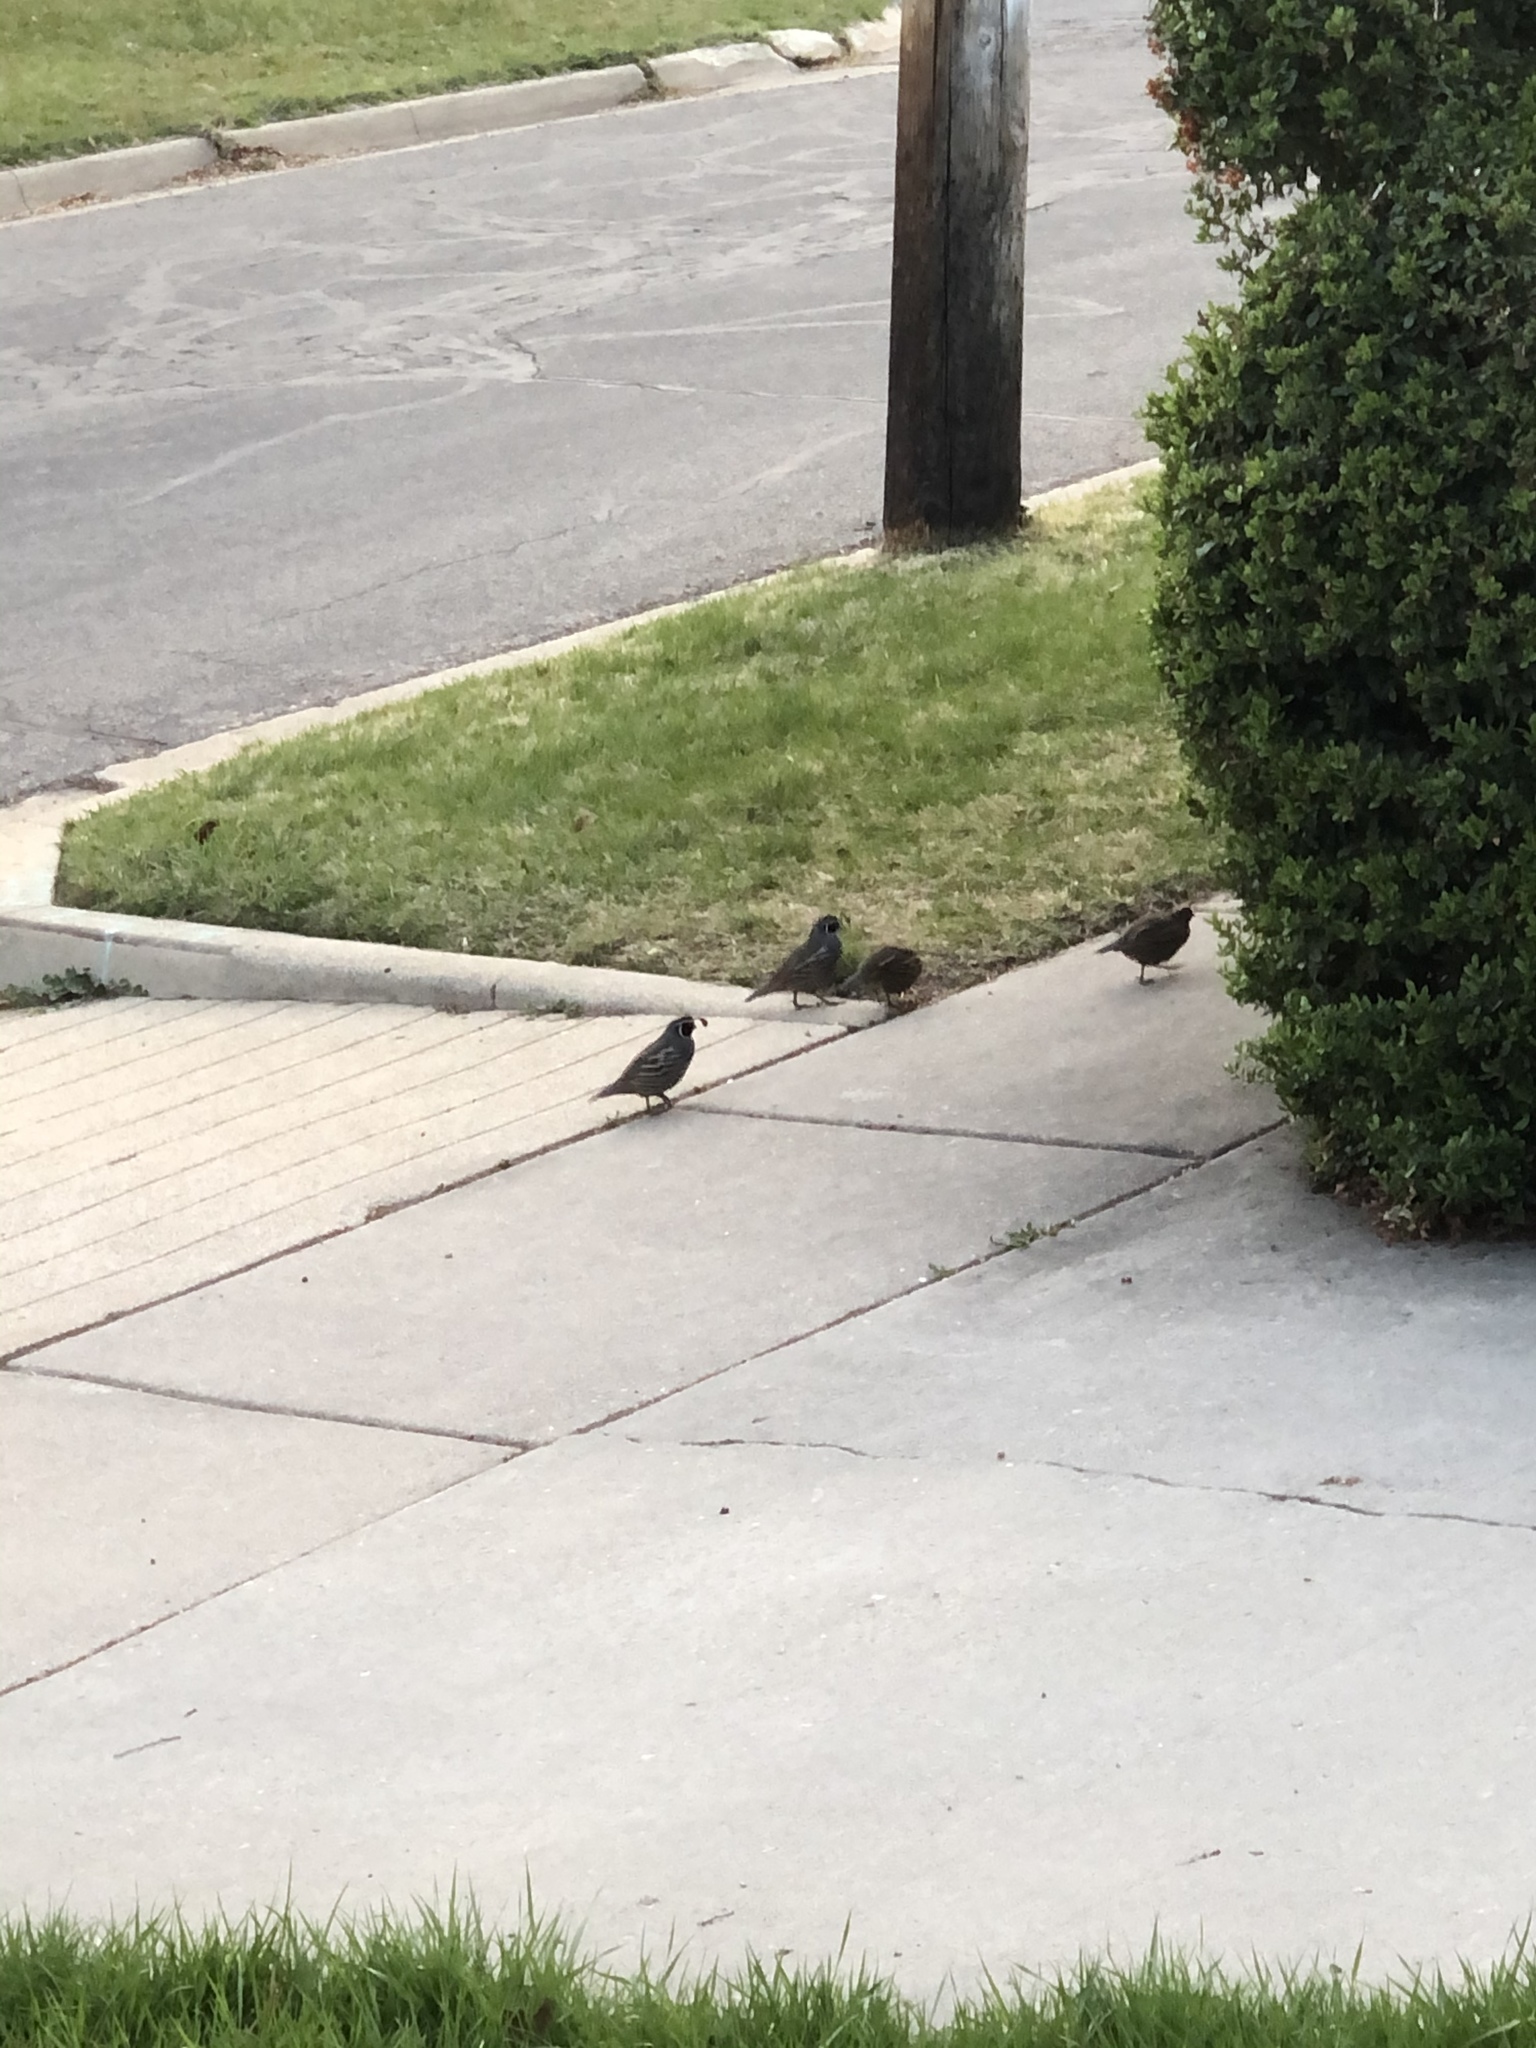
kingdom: Animalia
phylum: Chordata
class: Aves
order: Galliformes
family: Odontophoridae
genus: Callipepla
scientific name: Callipepla californica
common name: California quail
